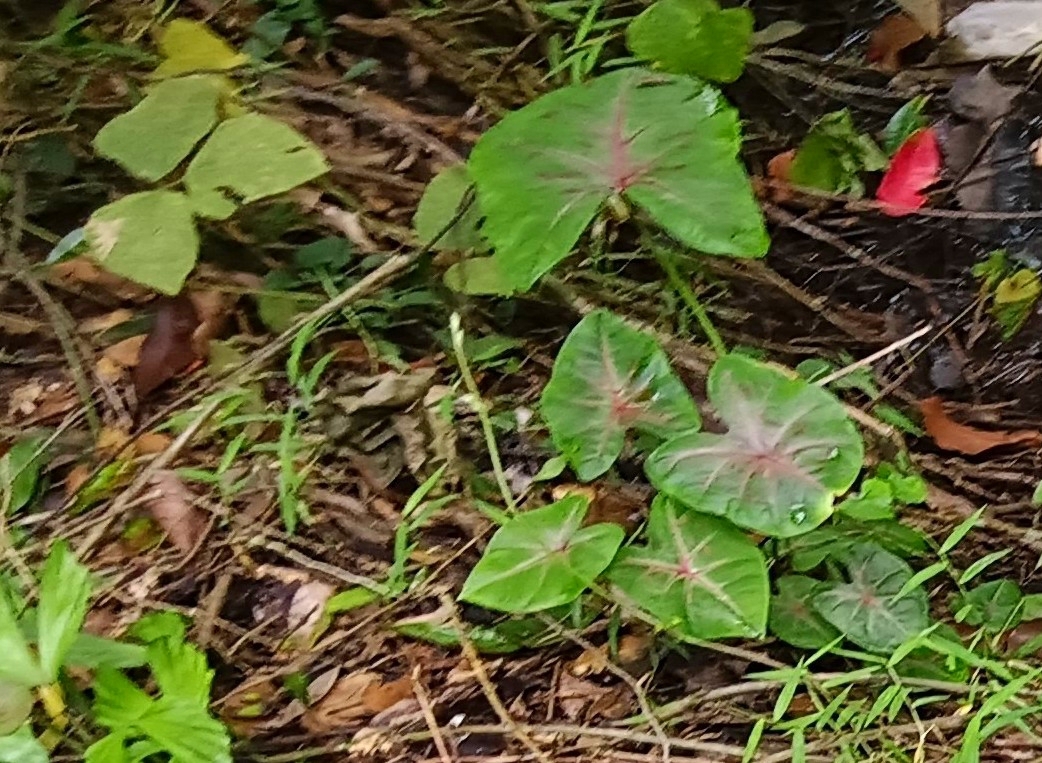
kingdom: Plantae
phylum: Tracheophyta
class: Liliopsida
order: Alismatales
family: Araceae
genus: Caladium
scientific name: Caladium bicolor
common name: Artist's pallet
